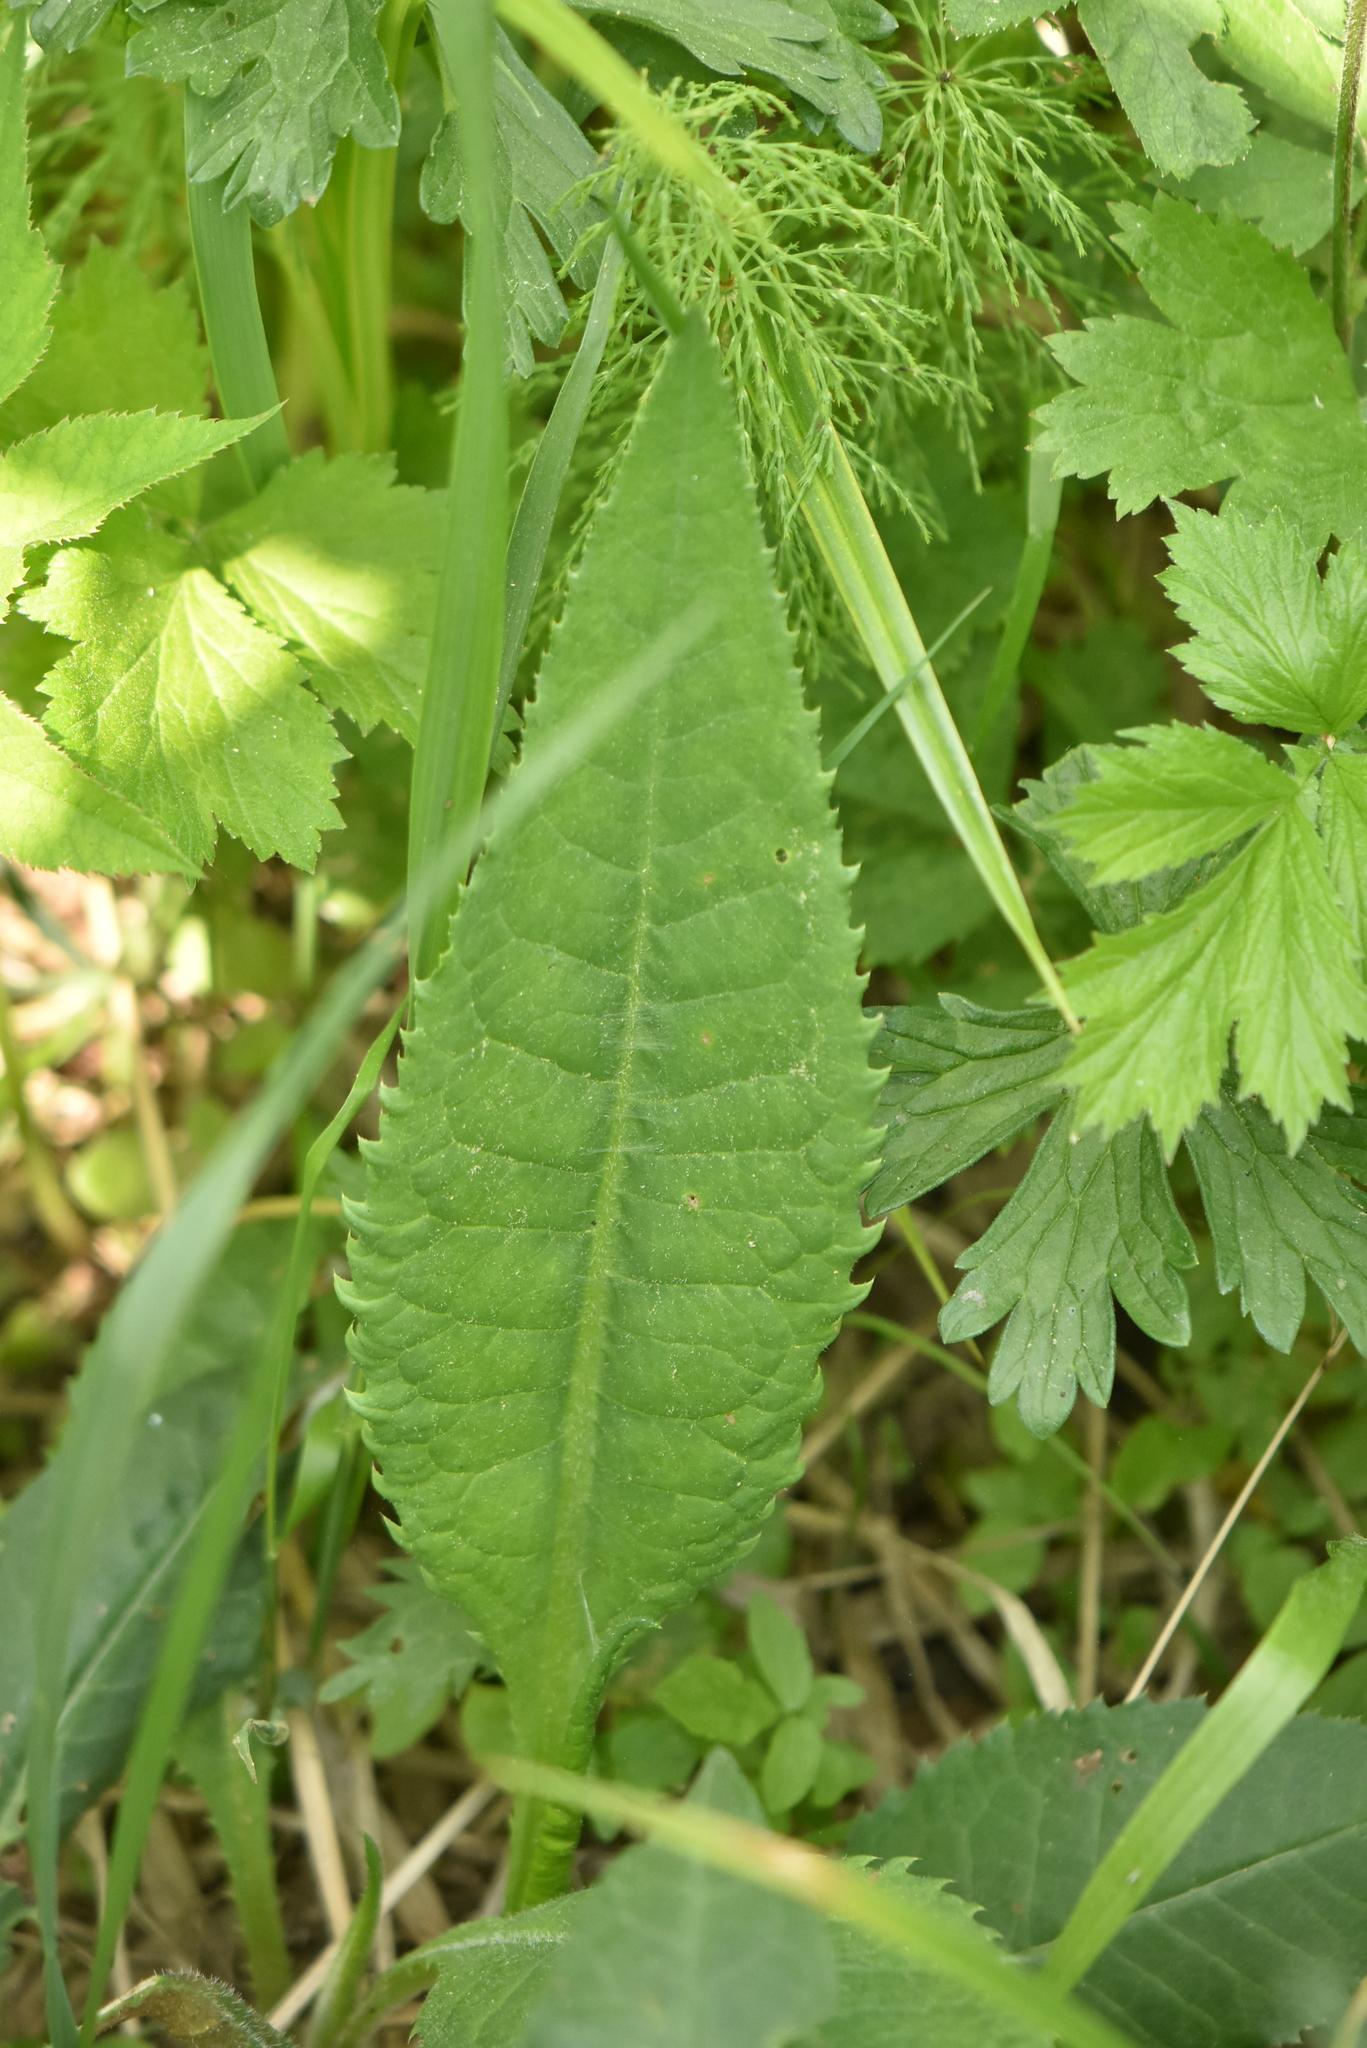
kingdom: Plantae
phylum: Tracheophyta
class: Magnoliopsida
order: Asterales
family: Asteraceae
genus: Cirsium
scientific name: Cirsium heterophyllum
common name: Melancholy thistle
